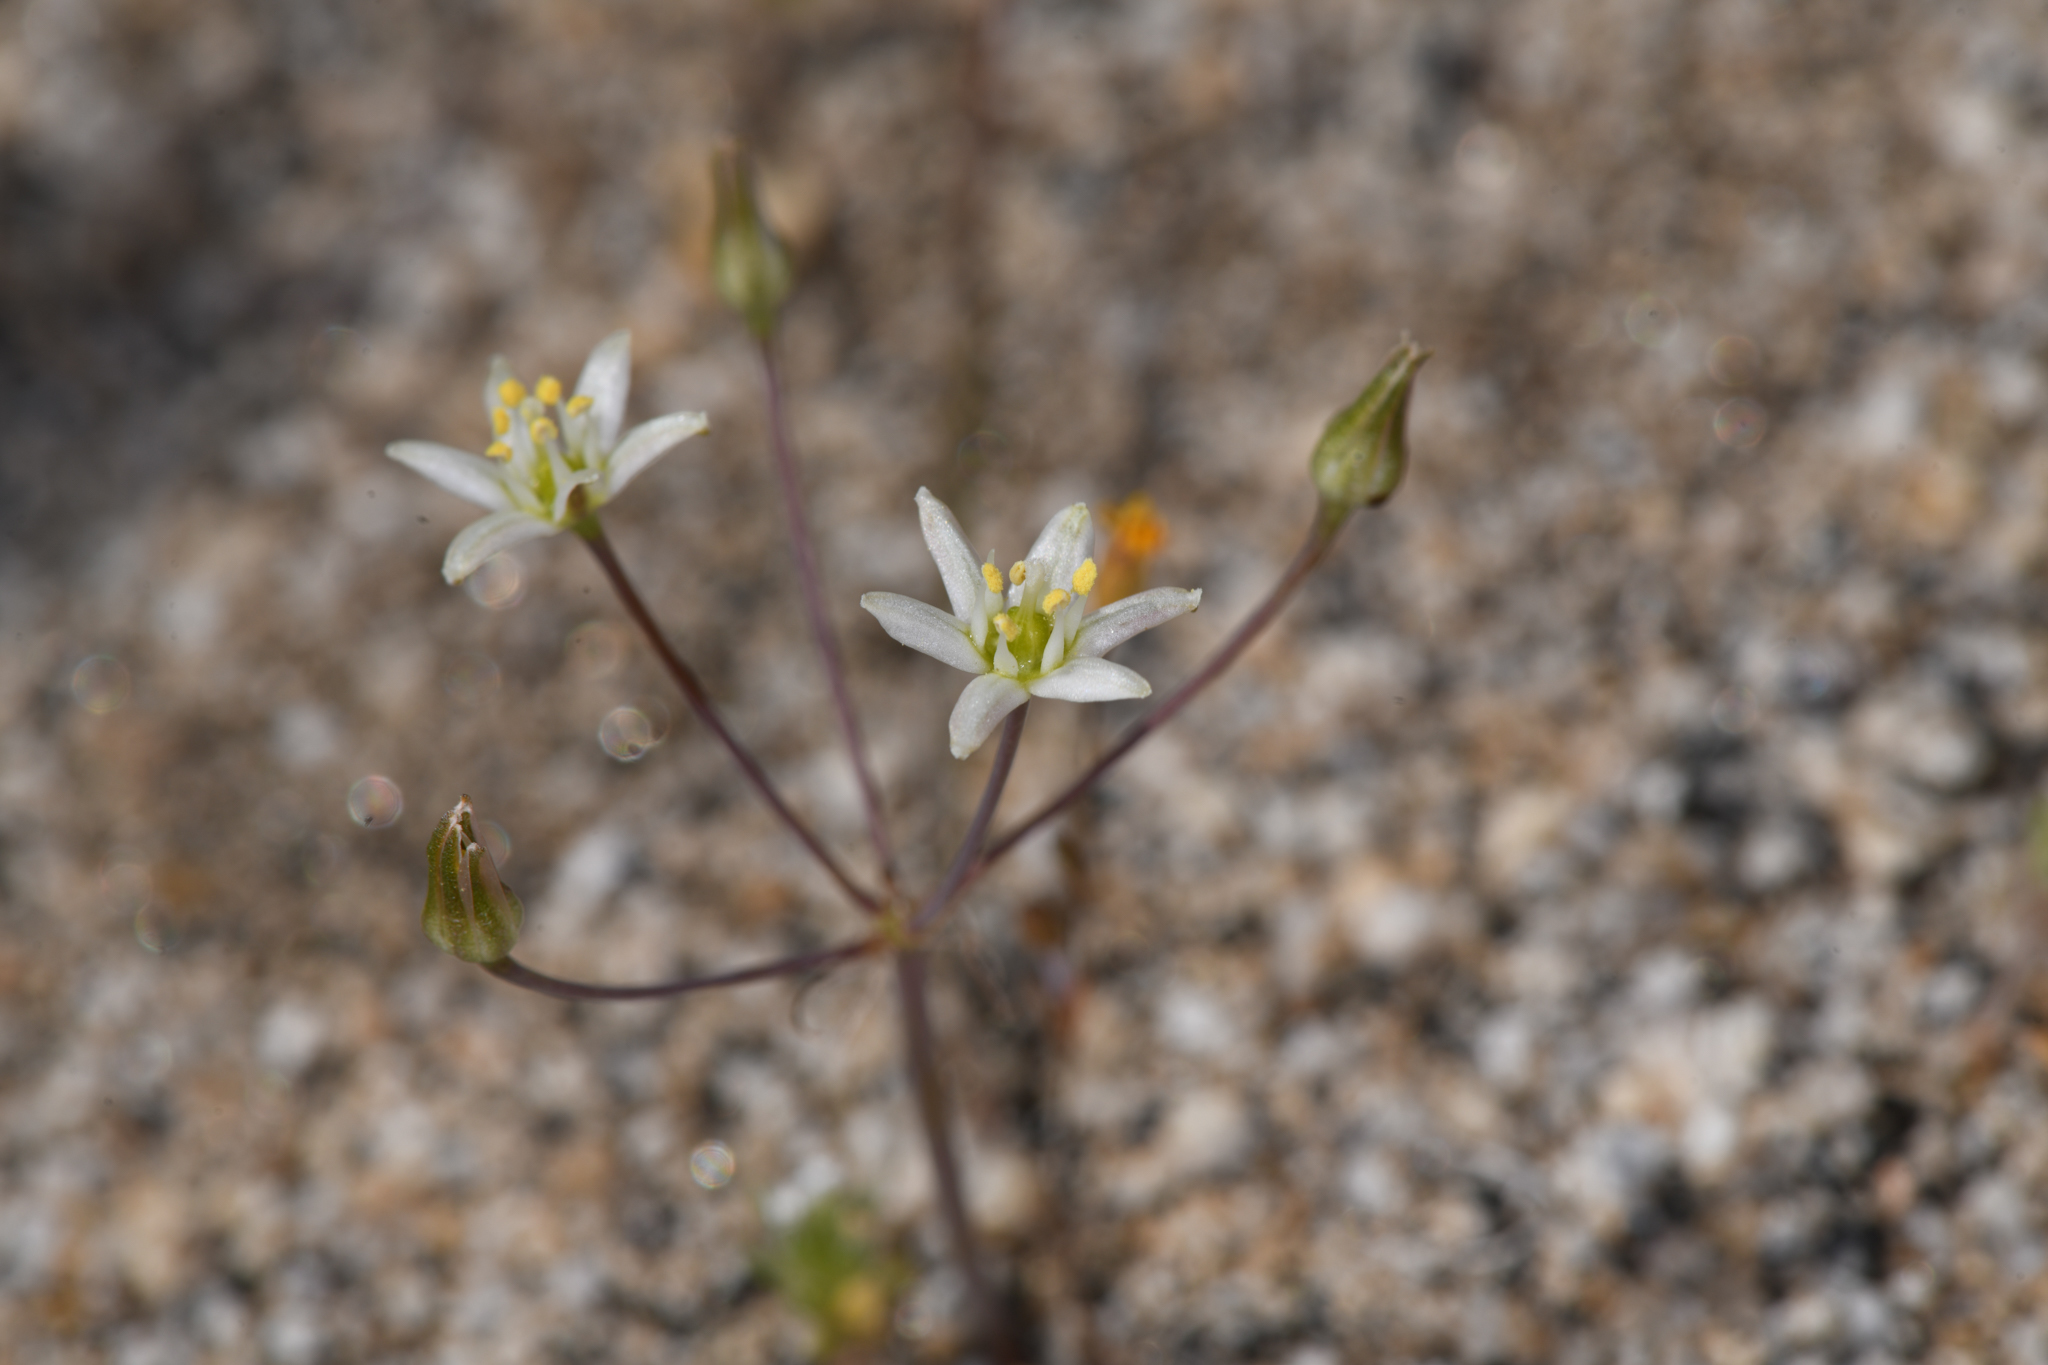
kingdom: Plantae
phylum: Tracheophyta
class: Liliopsida
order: Asparagales
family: Asparagaceae
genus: Muilla
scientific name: Muilla maritima
